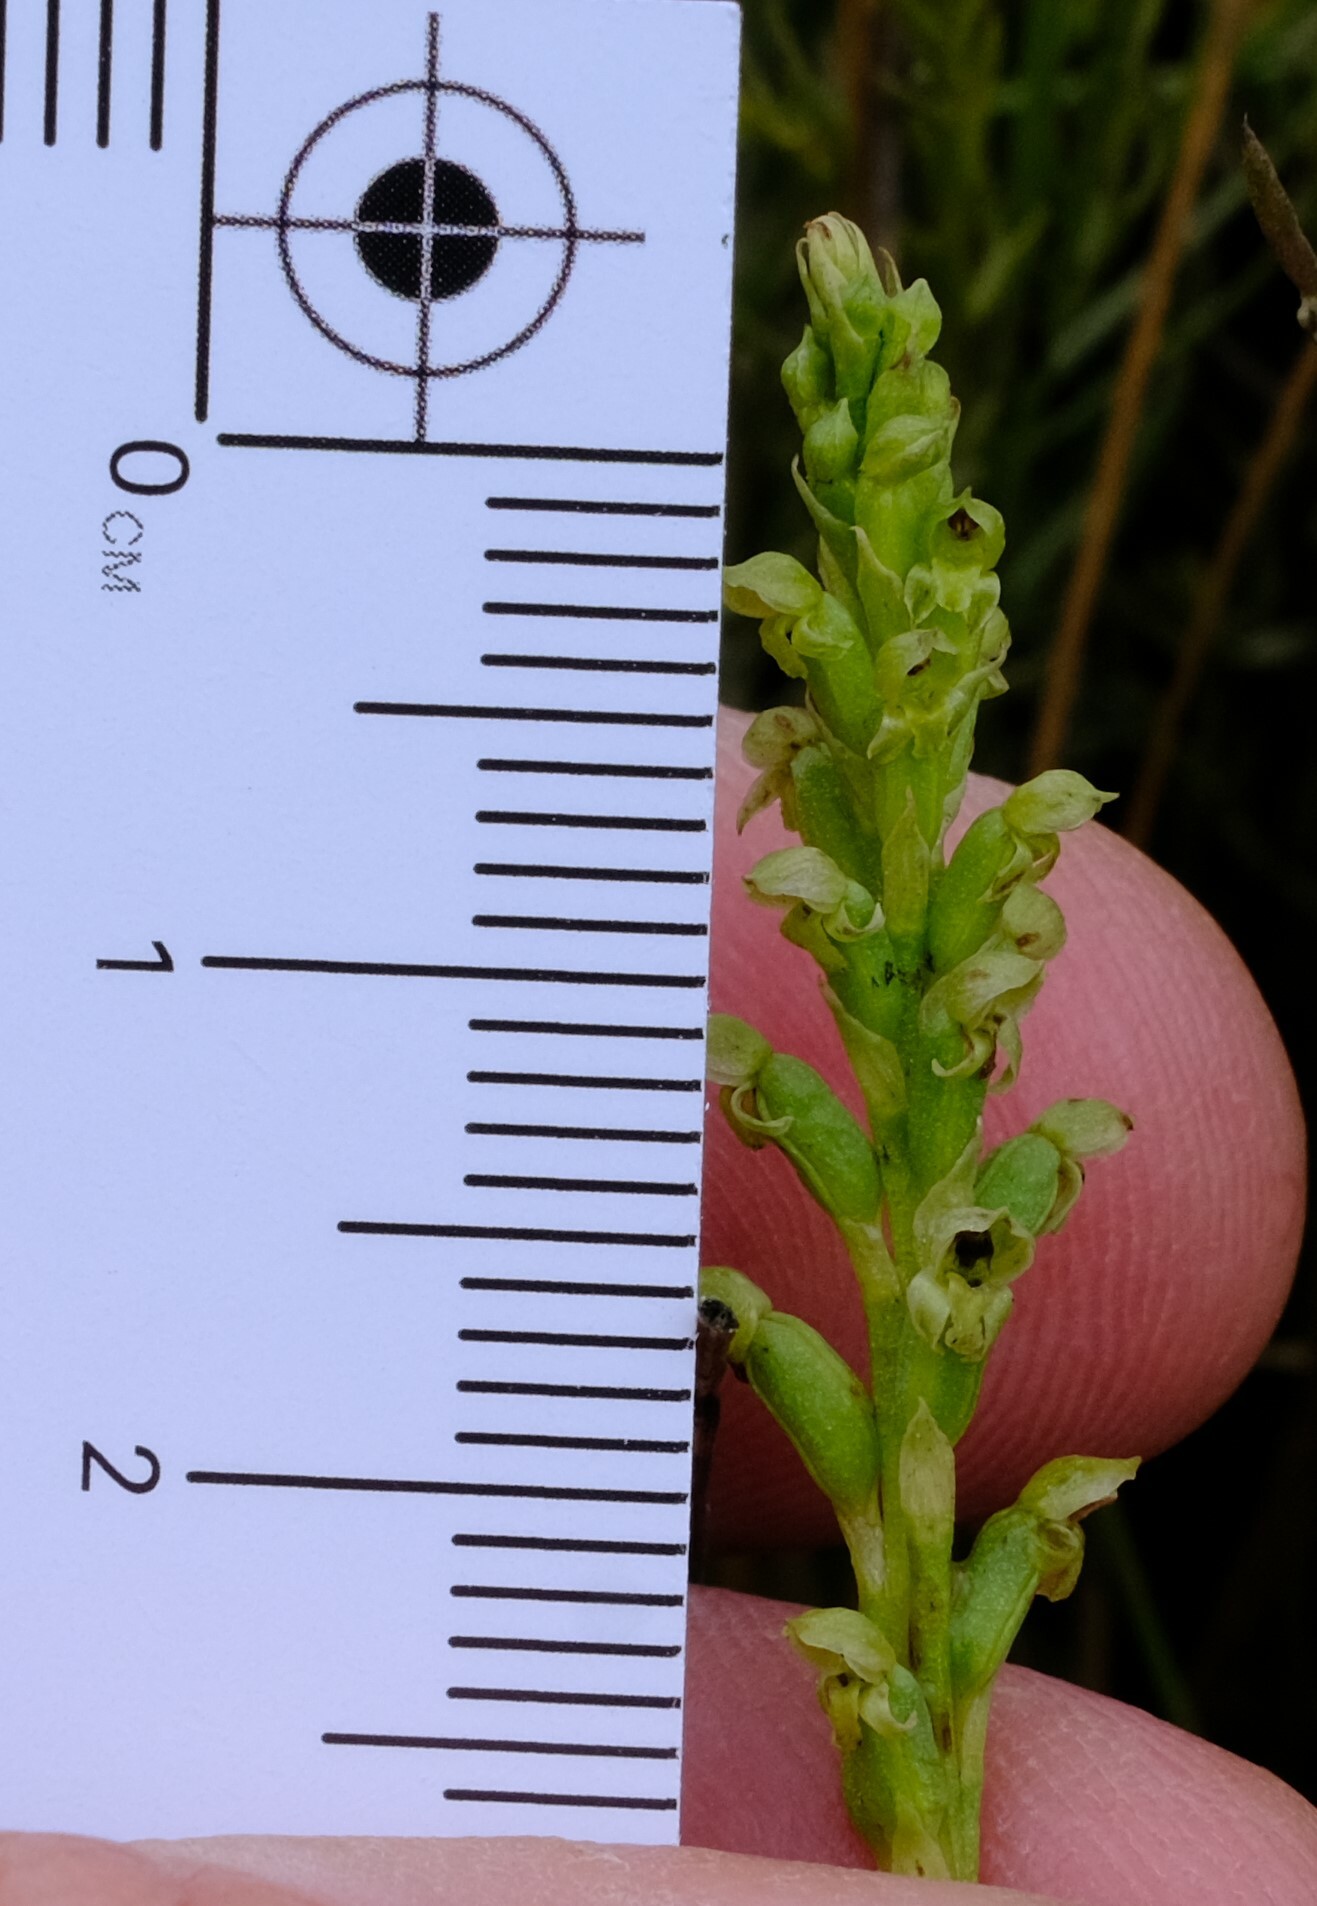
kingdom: Plantae
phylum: Tracheophyta
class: Liliopsida
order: Asparagales
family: Orchidaceae
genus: Microtis
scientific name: Microtis unifolia
